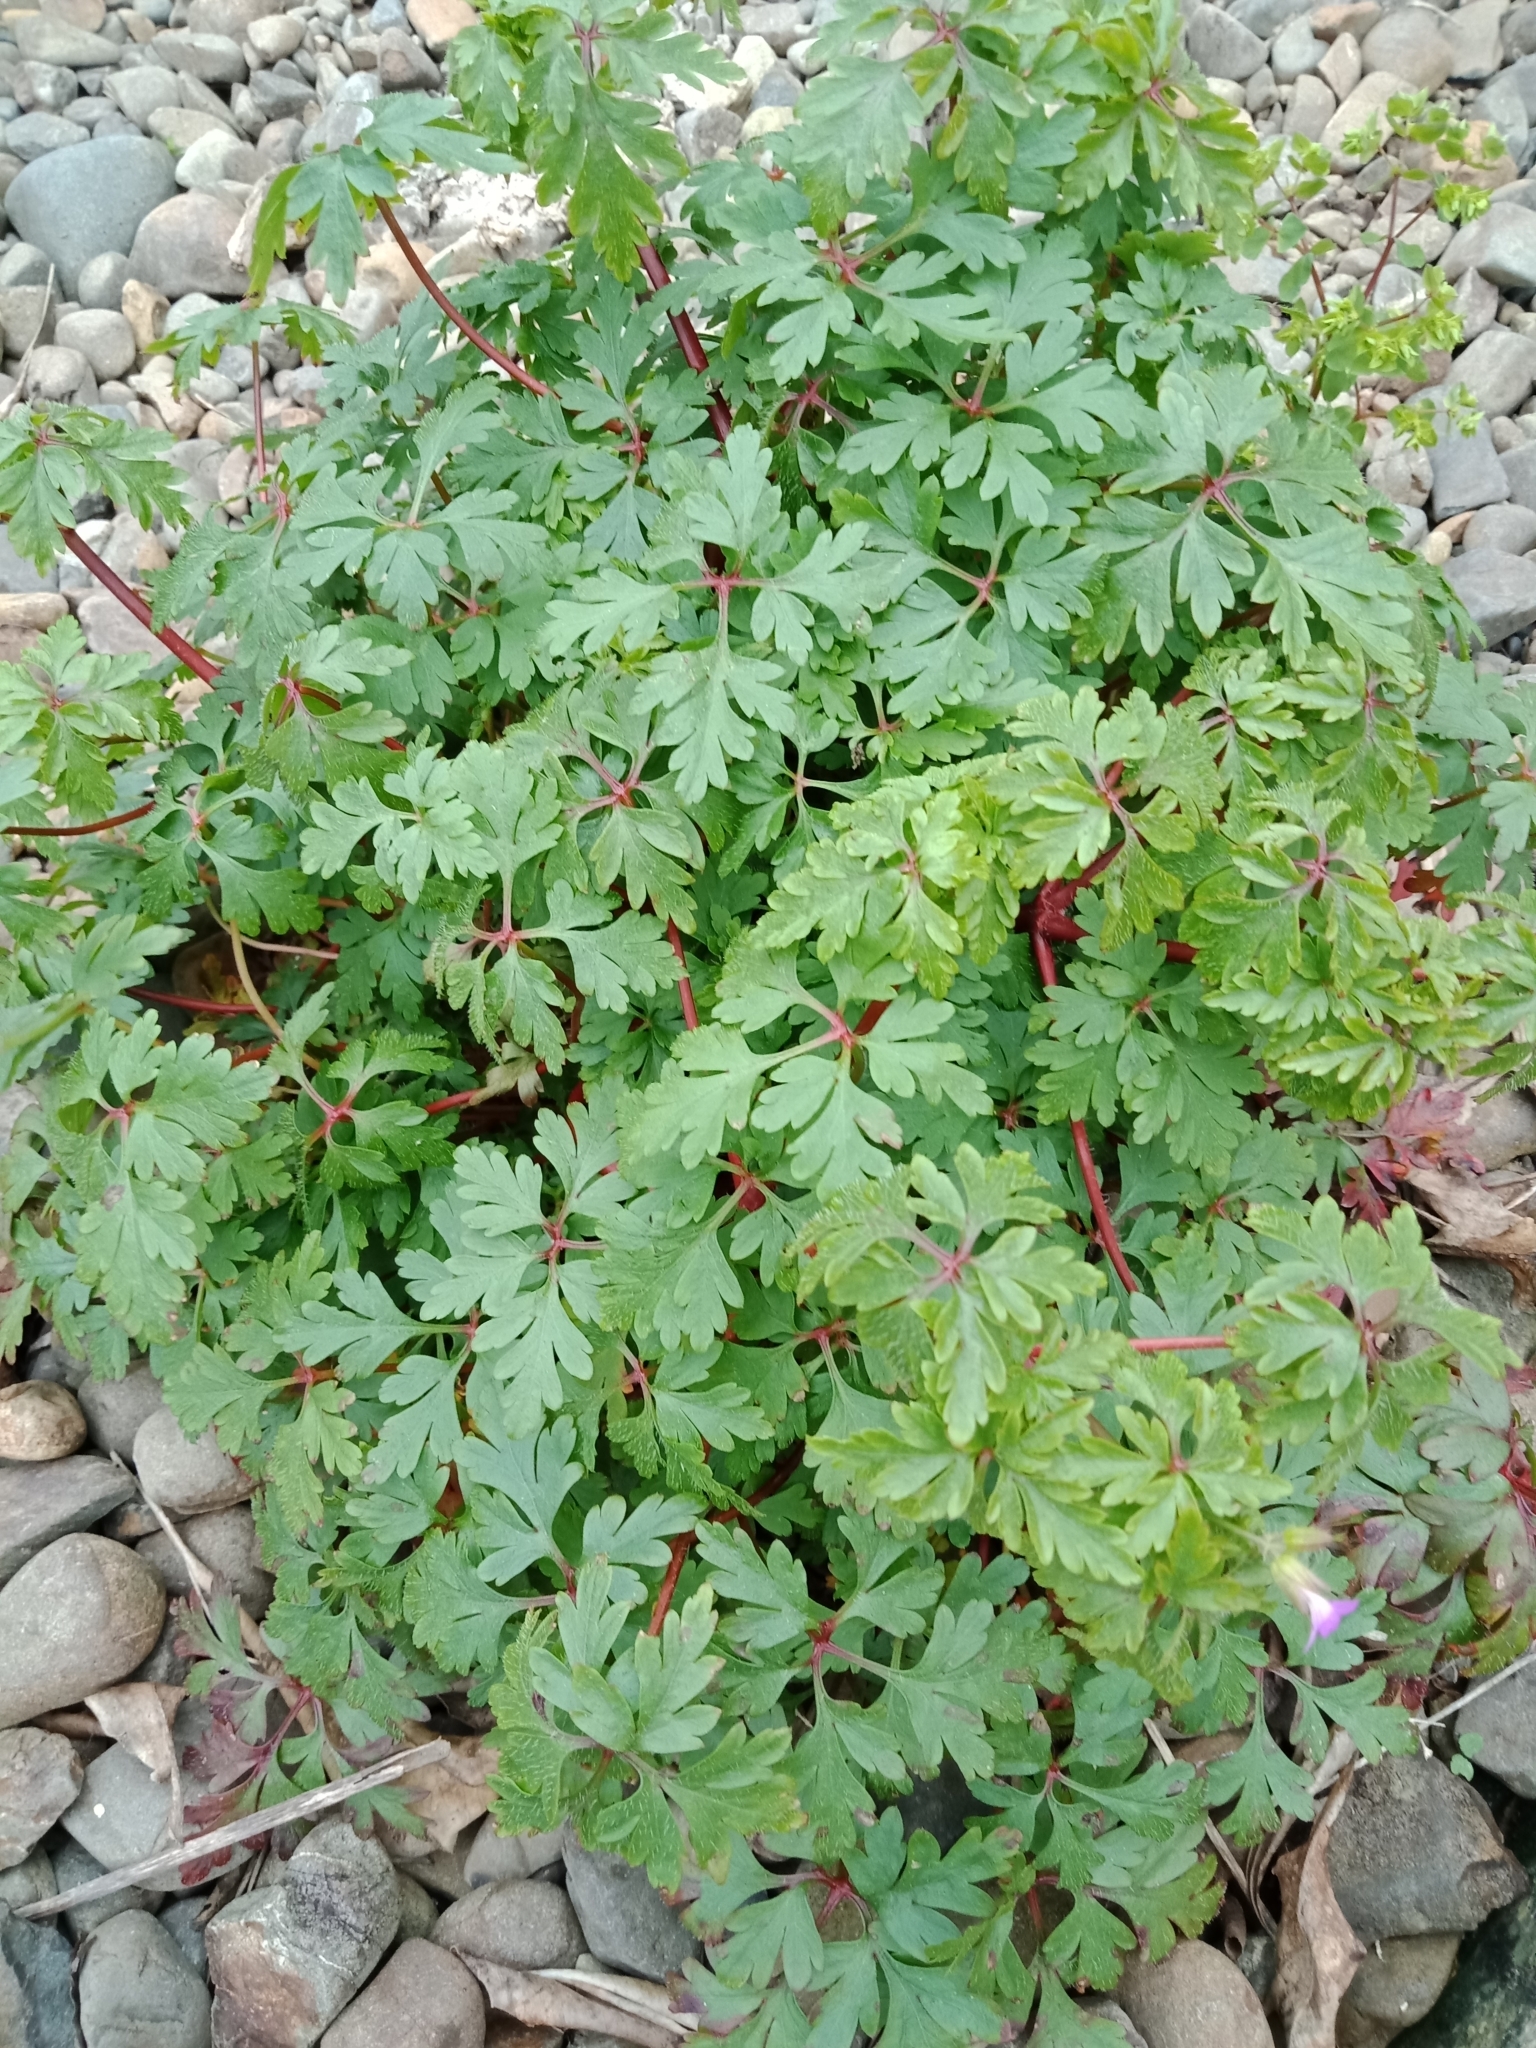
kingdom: Plantae
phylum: Tracheophyta
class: Magnoliopsida
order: Geraniales
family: Geraniaceae
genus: Geranium
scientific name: Geranium robertianum
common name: Herb-robert
